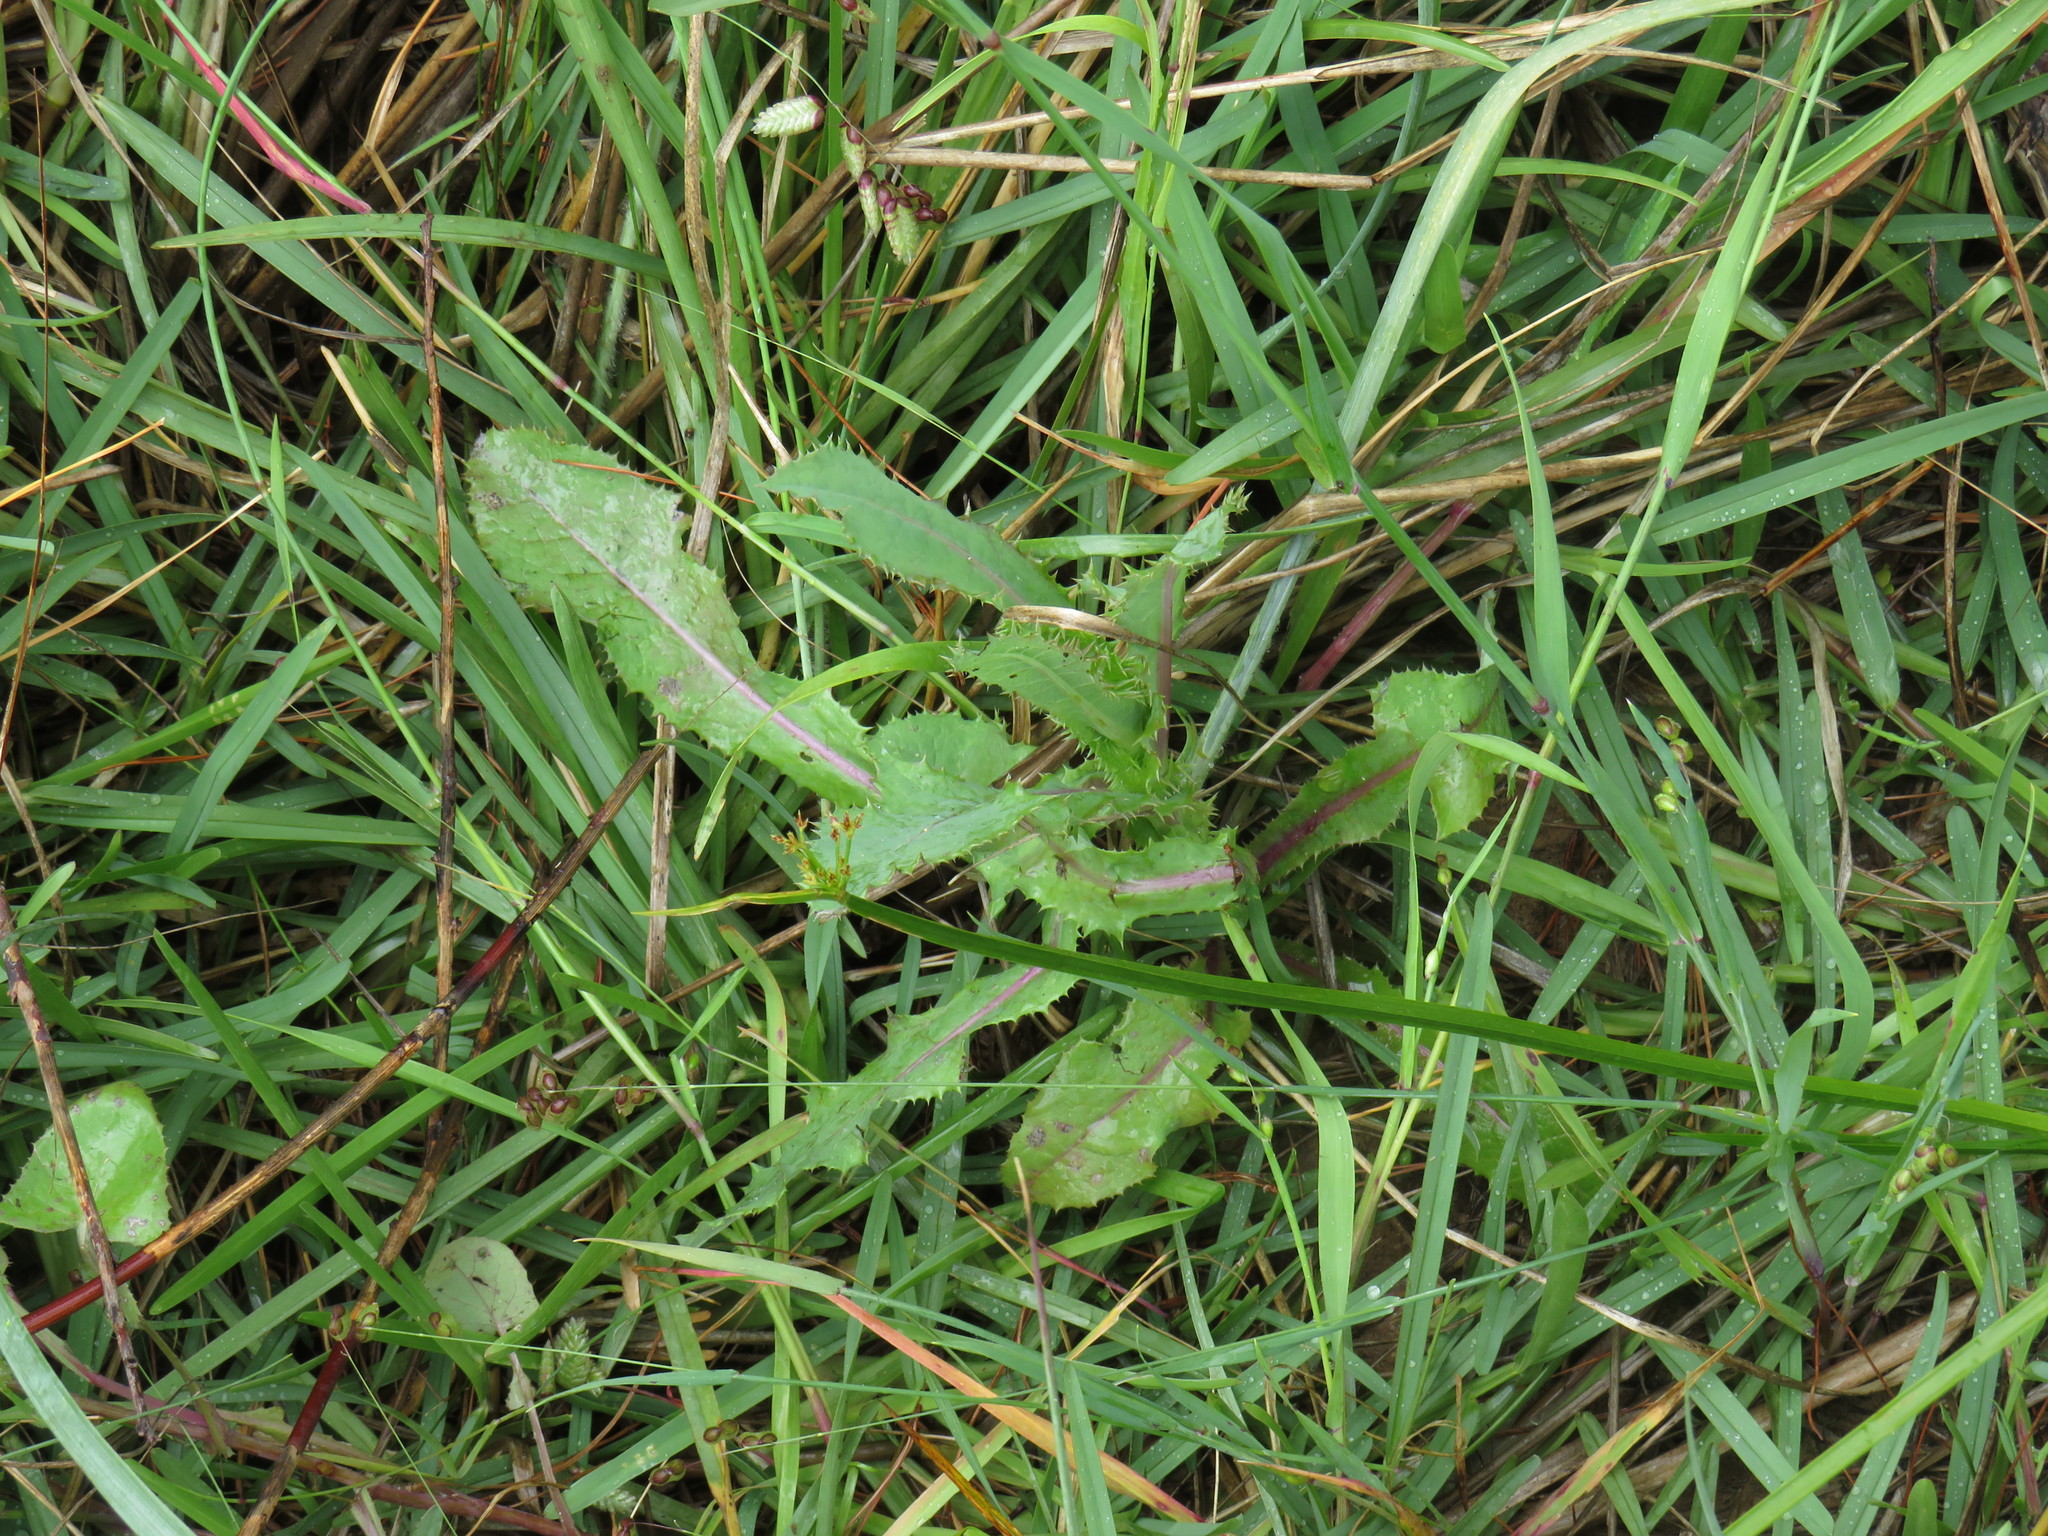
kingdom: Plantae
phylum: Tracheophyta
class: Magnoliopsida
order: Asterales
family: Asteraceae
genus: Sonchus
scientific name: Sonchus asper
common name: Prickly sow-thistle
